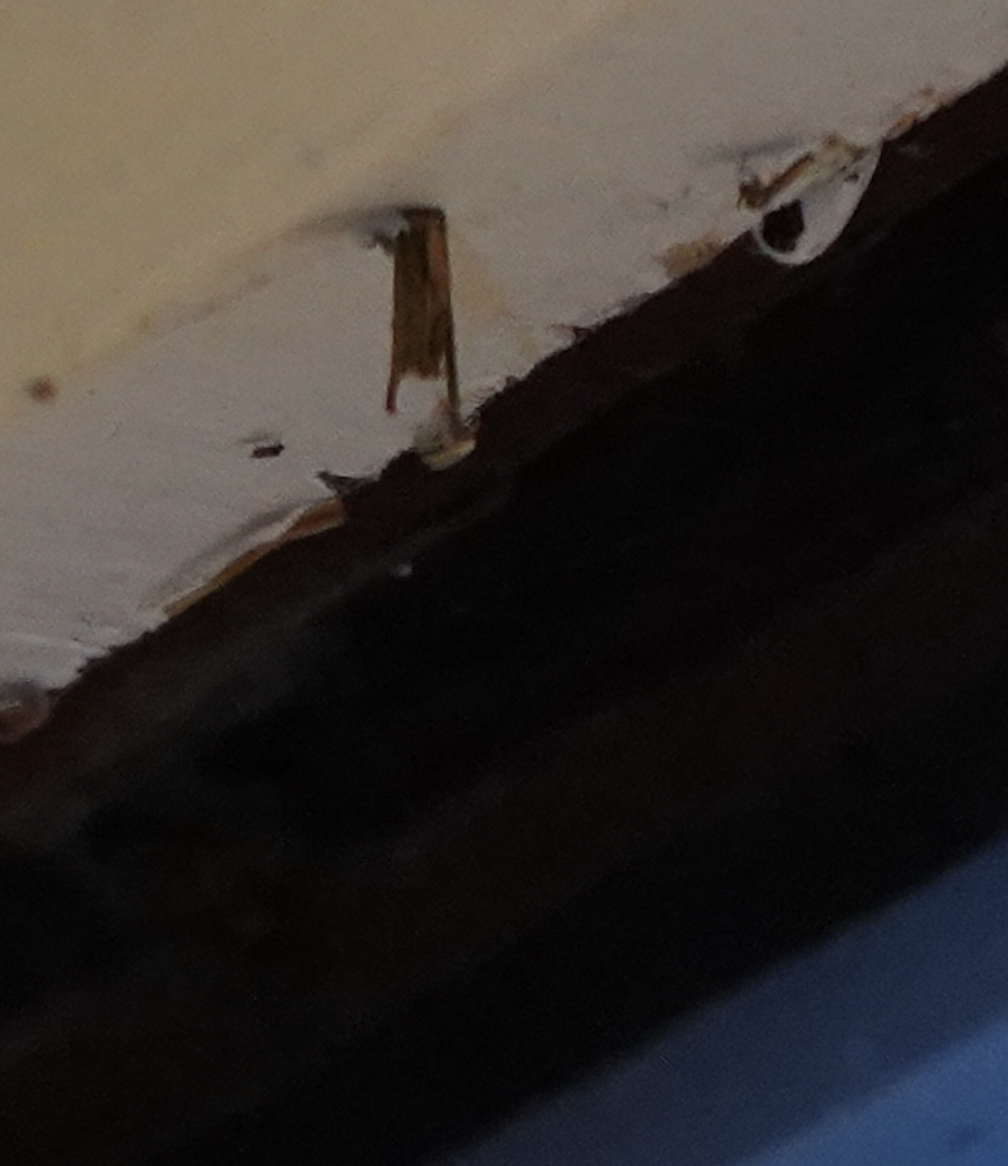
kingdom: Animalia
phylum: Arthropoda
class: Insecta
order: Lepidoptera
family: Psychidae
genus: Psyche
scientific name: Psyche casta
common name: Common sweep
